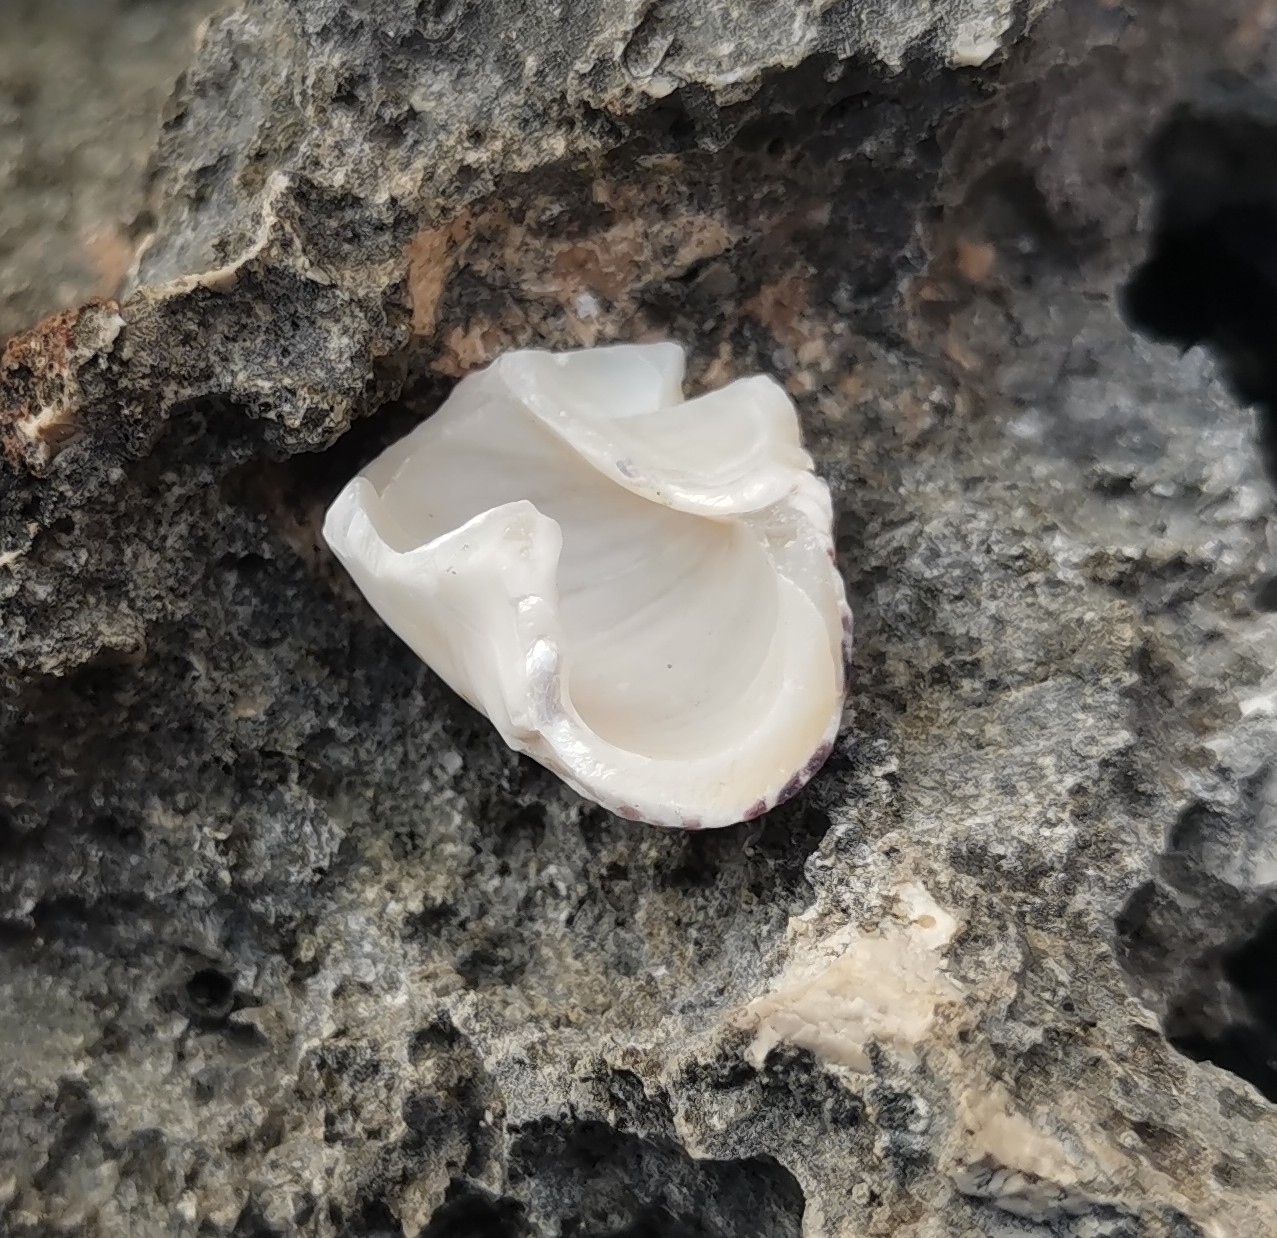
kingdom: Animalia
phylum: Mollusca
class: Gastropoda
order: Trochida
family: Trochidae
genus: Phorcus
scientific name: Phorcus turbinatus
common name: Turbinate monodont
